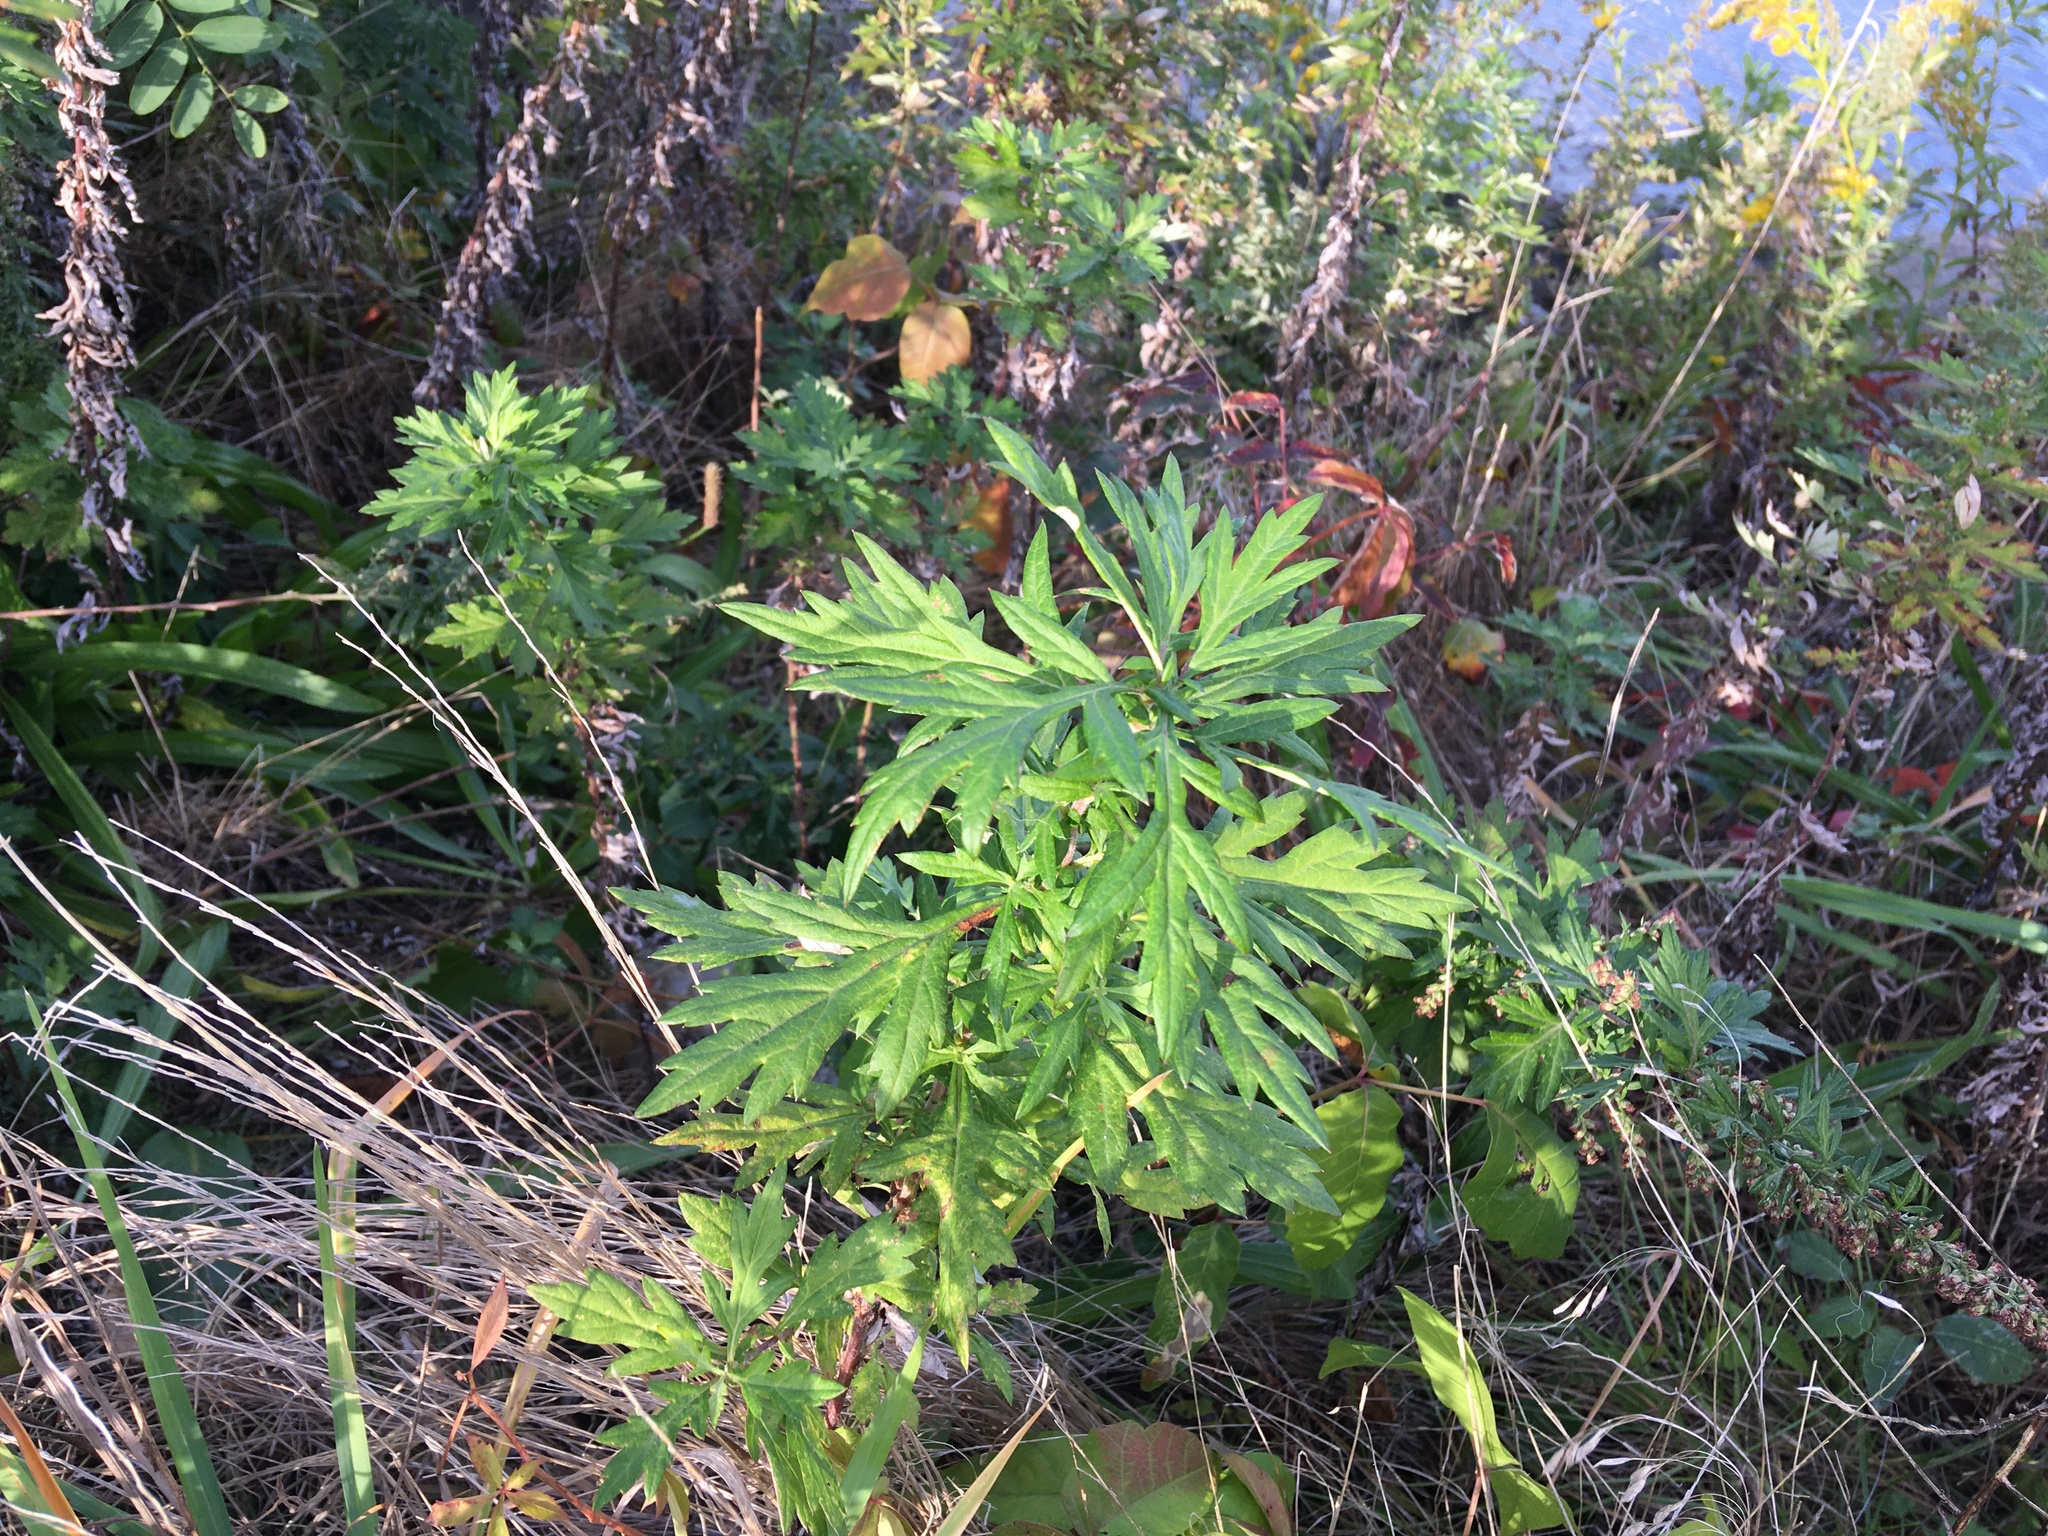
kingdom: Plantae
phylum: Tracheophyta
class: Magnoliopsida
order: Asterales
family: Asteraceae
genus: Artemisia
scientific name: Artemisia vulgaris
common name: Mugwort
